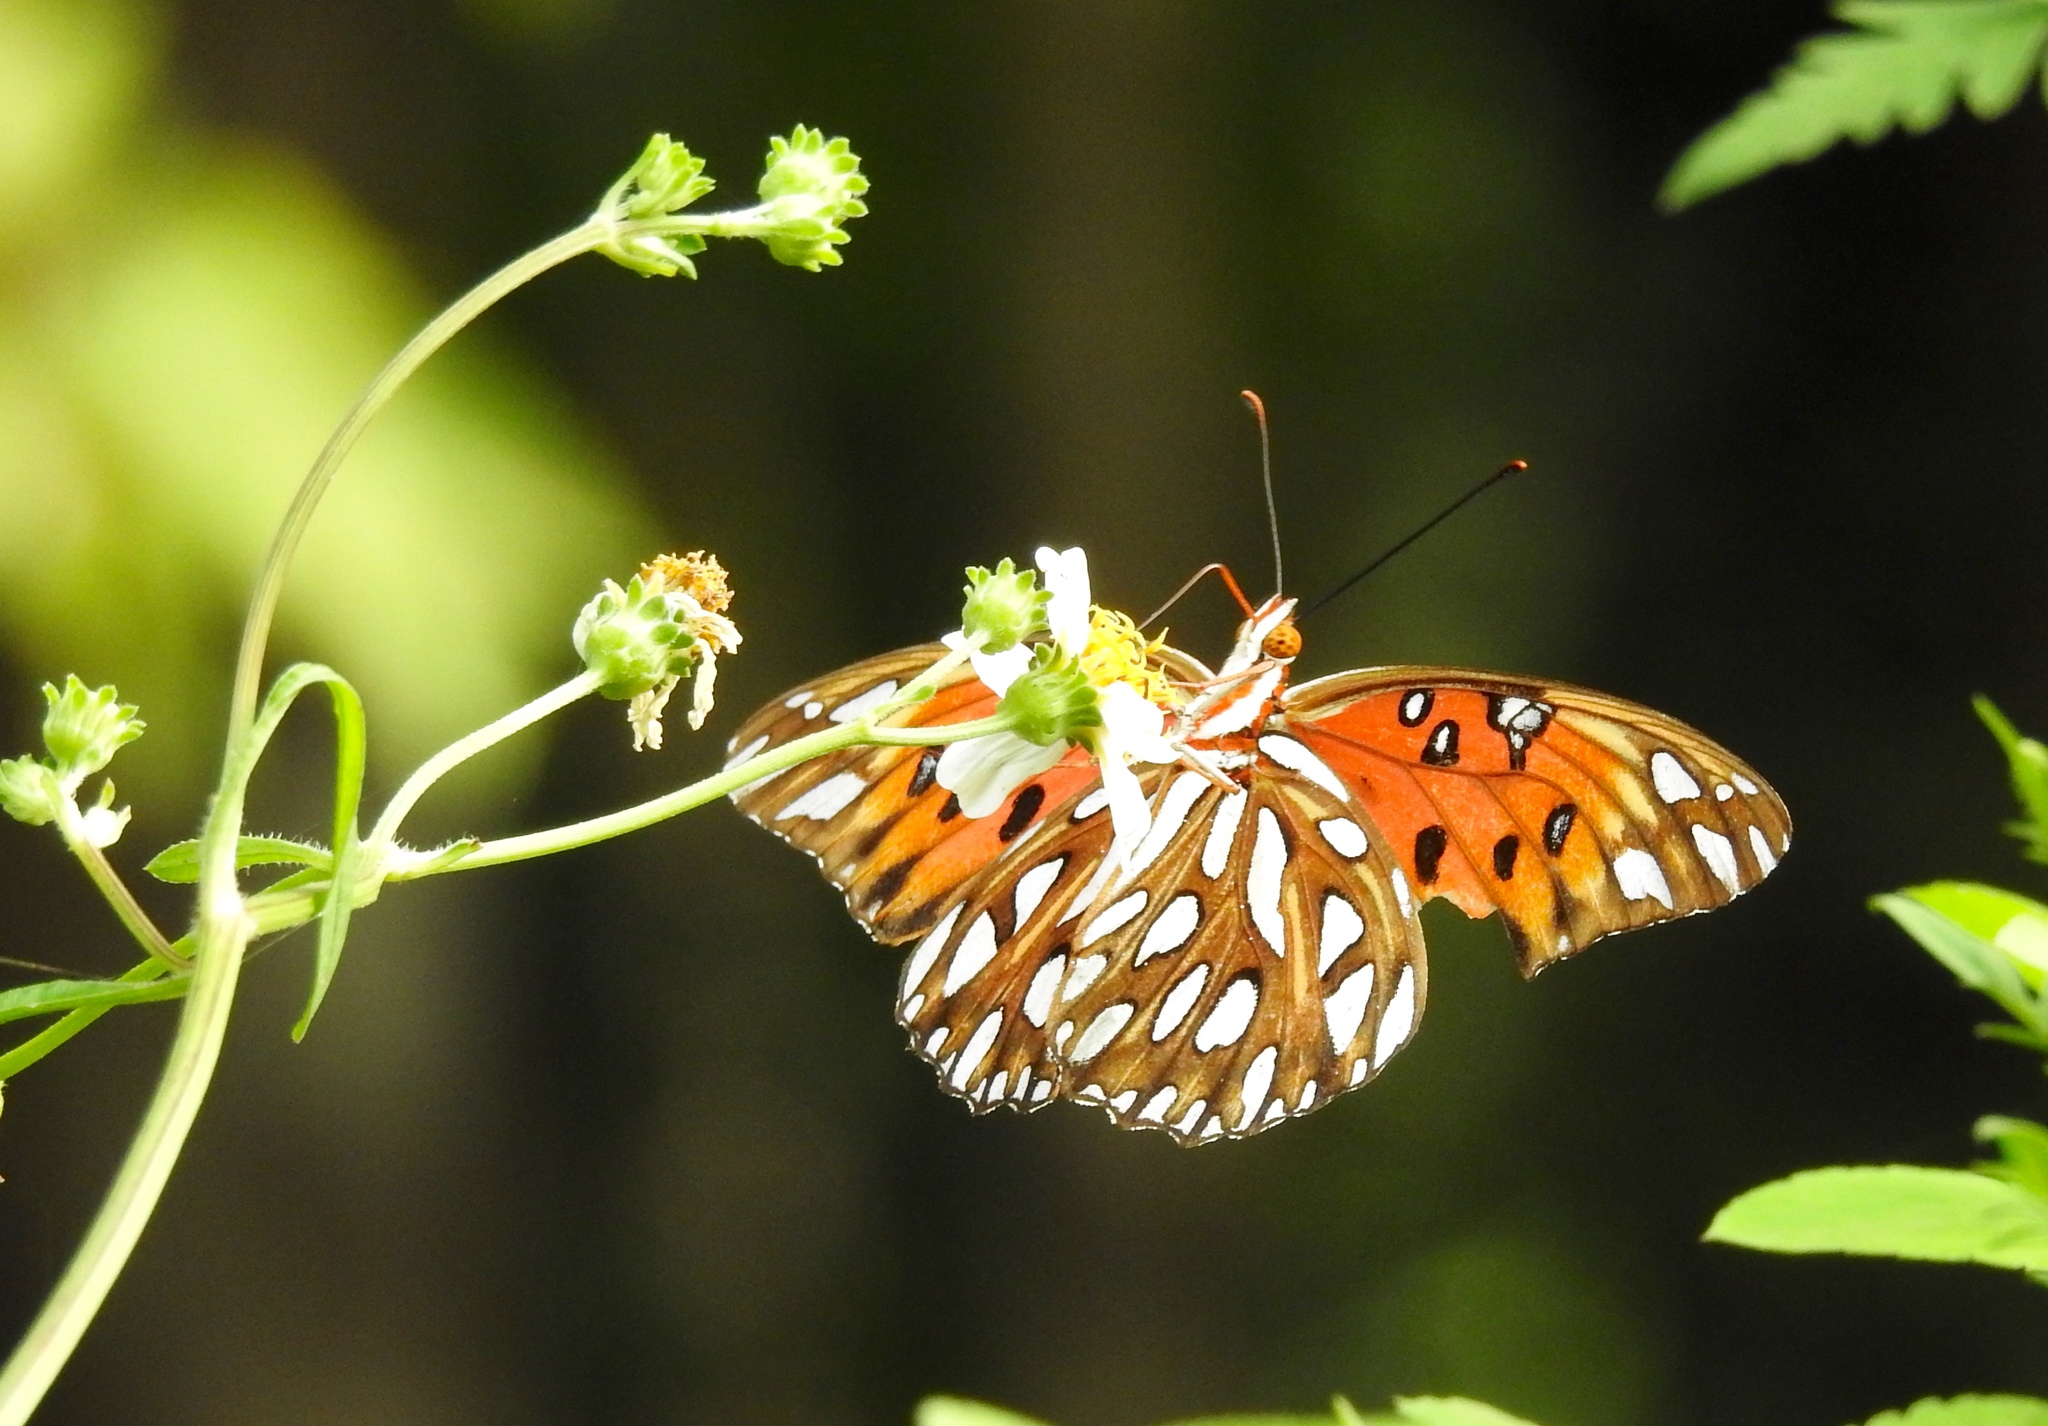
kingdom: Animalia
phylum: Arthropoda
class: Insecta
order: Lepidoptera
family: Nymphalidae
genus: Dione
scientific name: Dione vanillae
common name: Gulf fritillary
